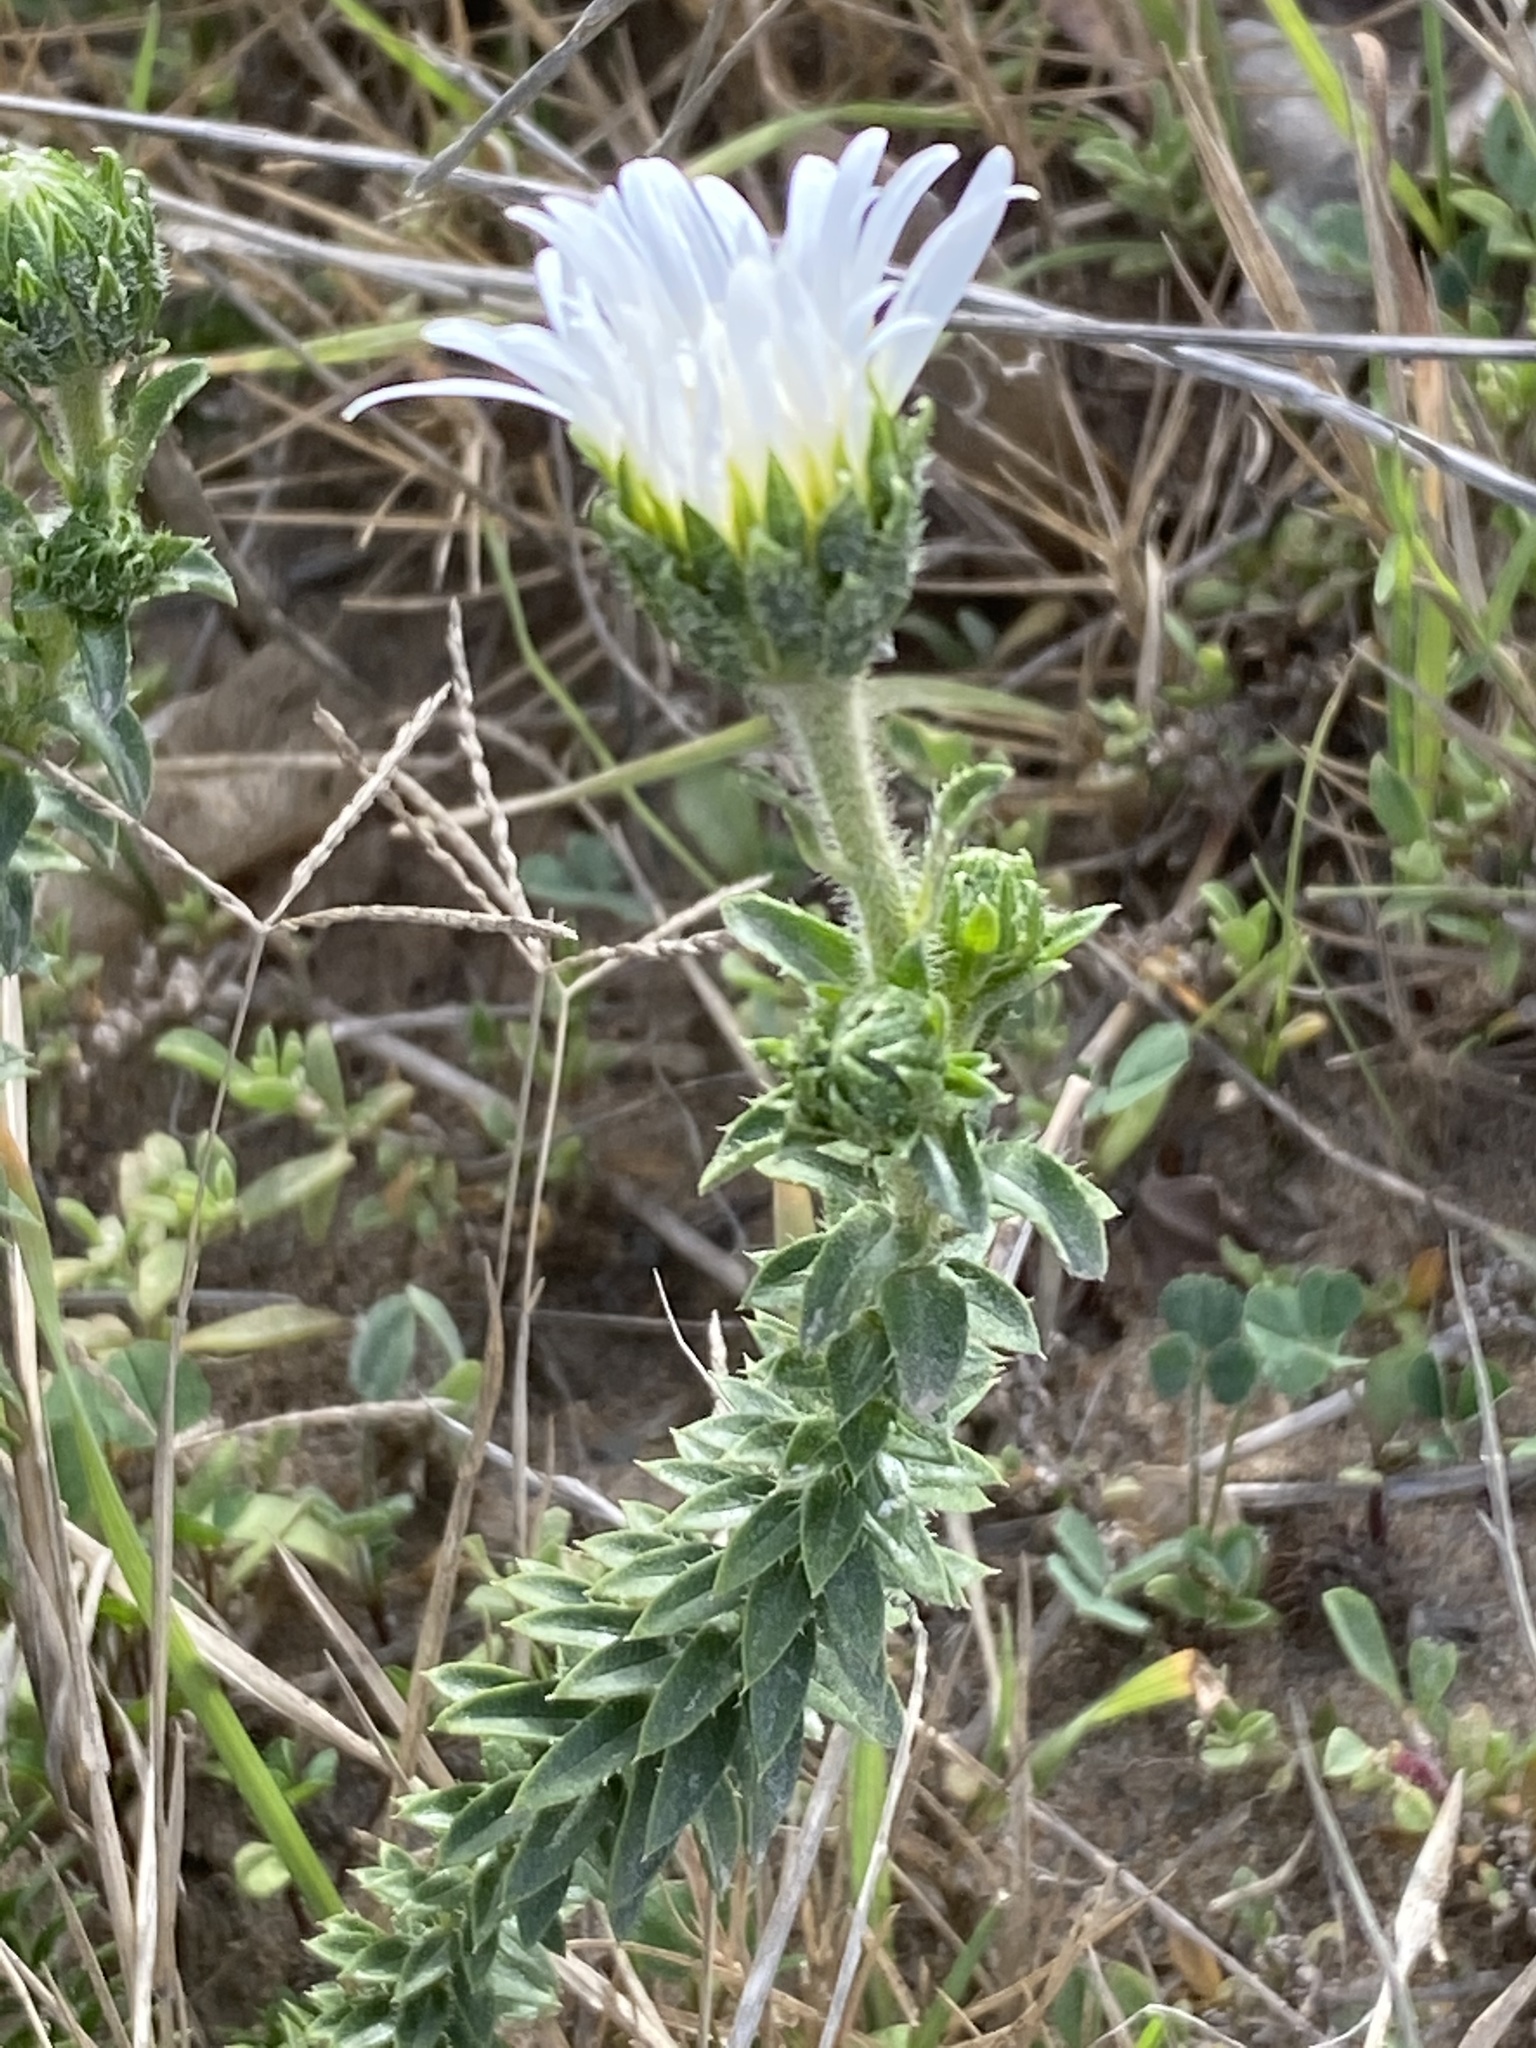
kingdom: Plantae
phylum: Tracheophyta
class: Magnoliopsida
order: Asterales
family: Asteraceae
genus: Felicia
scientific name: Felicia echinata
